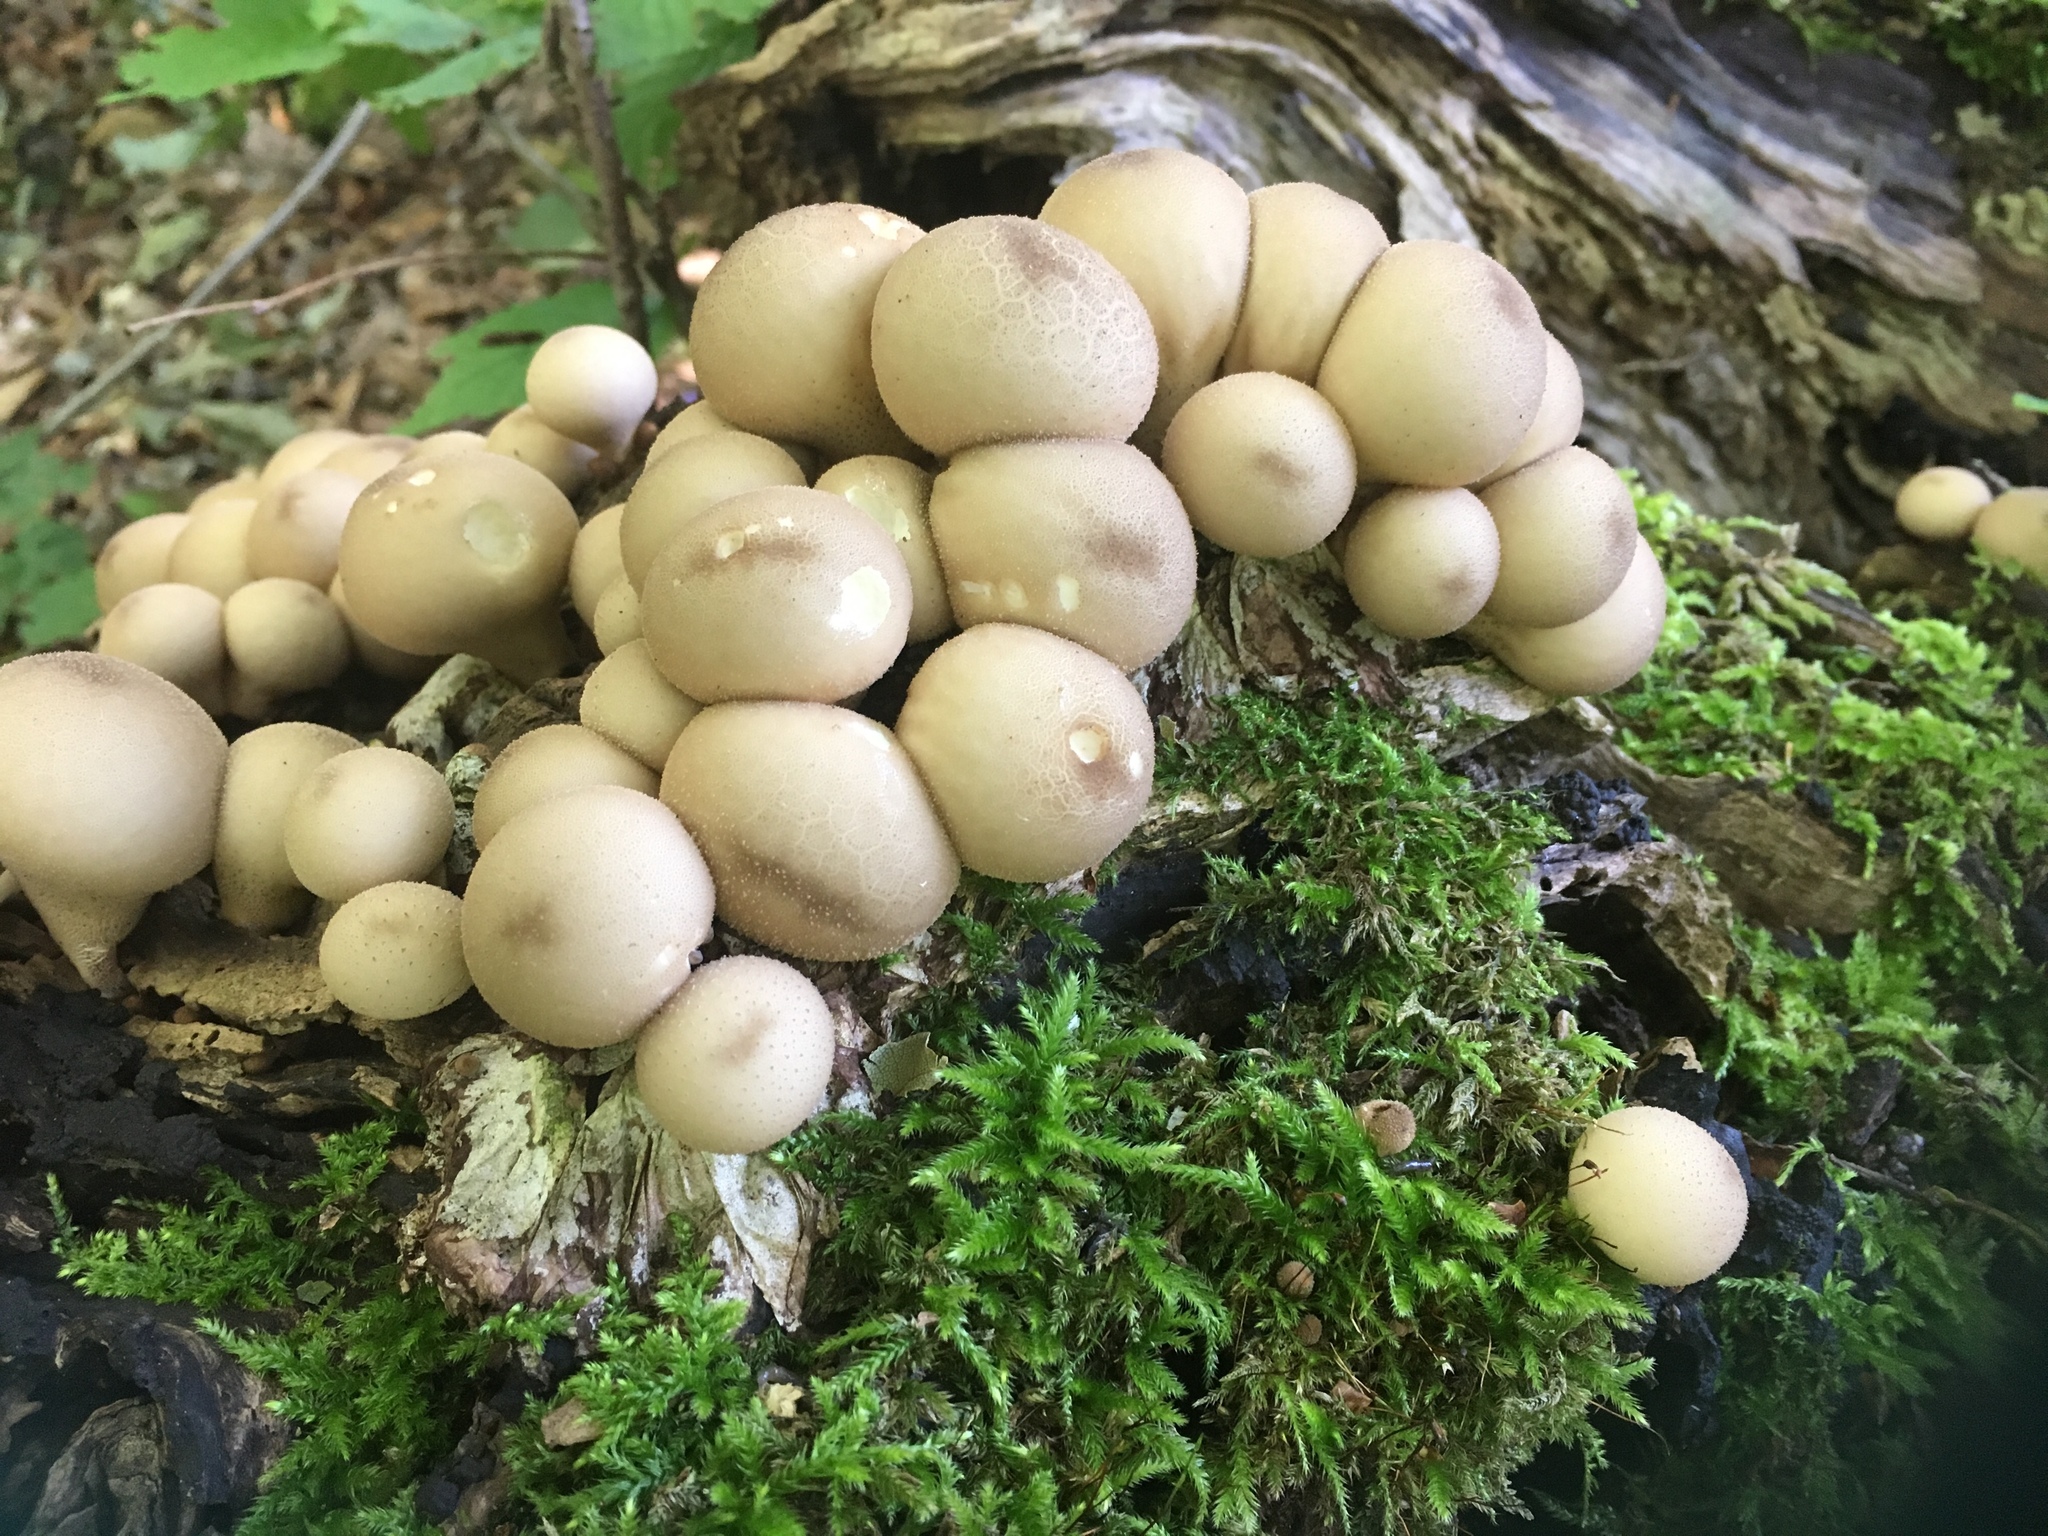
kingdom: Fungi
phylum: Basidiomycota
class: Agaricomycetes
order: Agaricales
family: Lycoperdaceae
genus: Apioperdon
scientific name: Apioperdon pyriforme
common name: Pear-shaped puffball
